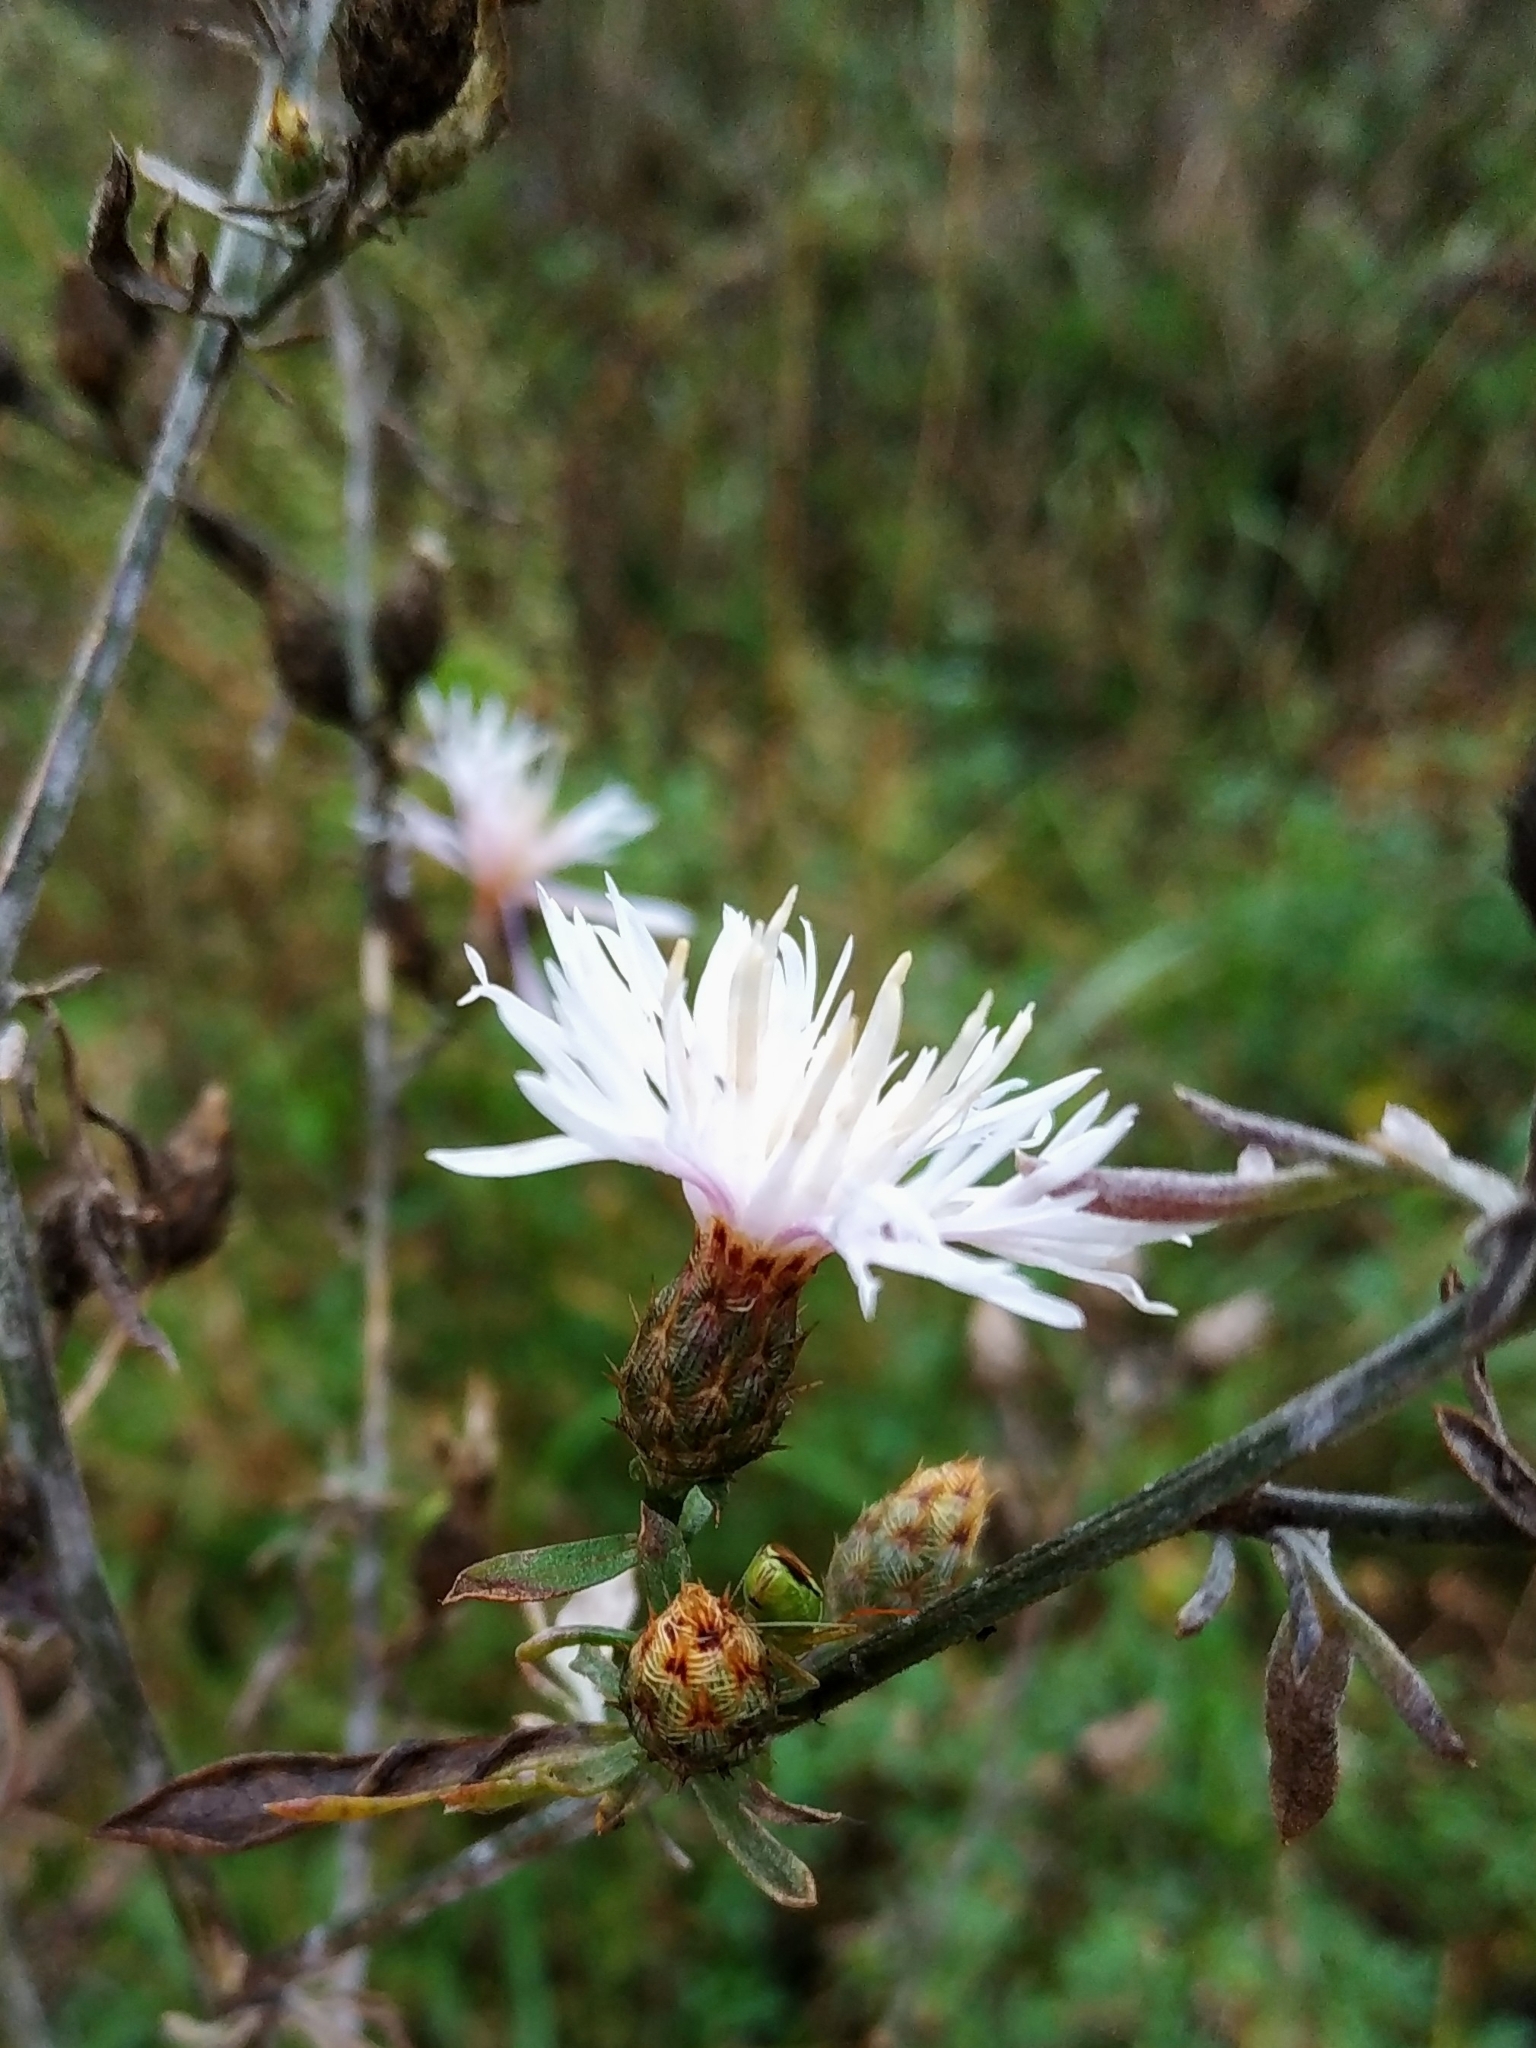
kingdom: Plantae
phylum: Tracheophyta
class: Magnoliopsida
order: Asterales
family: Asteraceae
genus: Centaurea
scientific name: Centaurea stoebe
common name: Spotted knapweed
